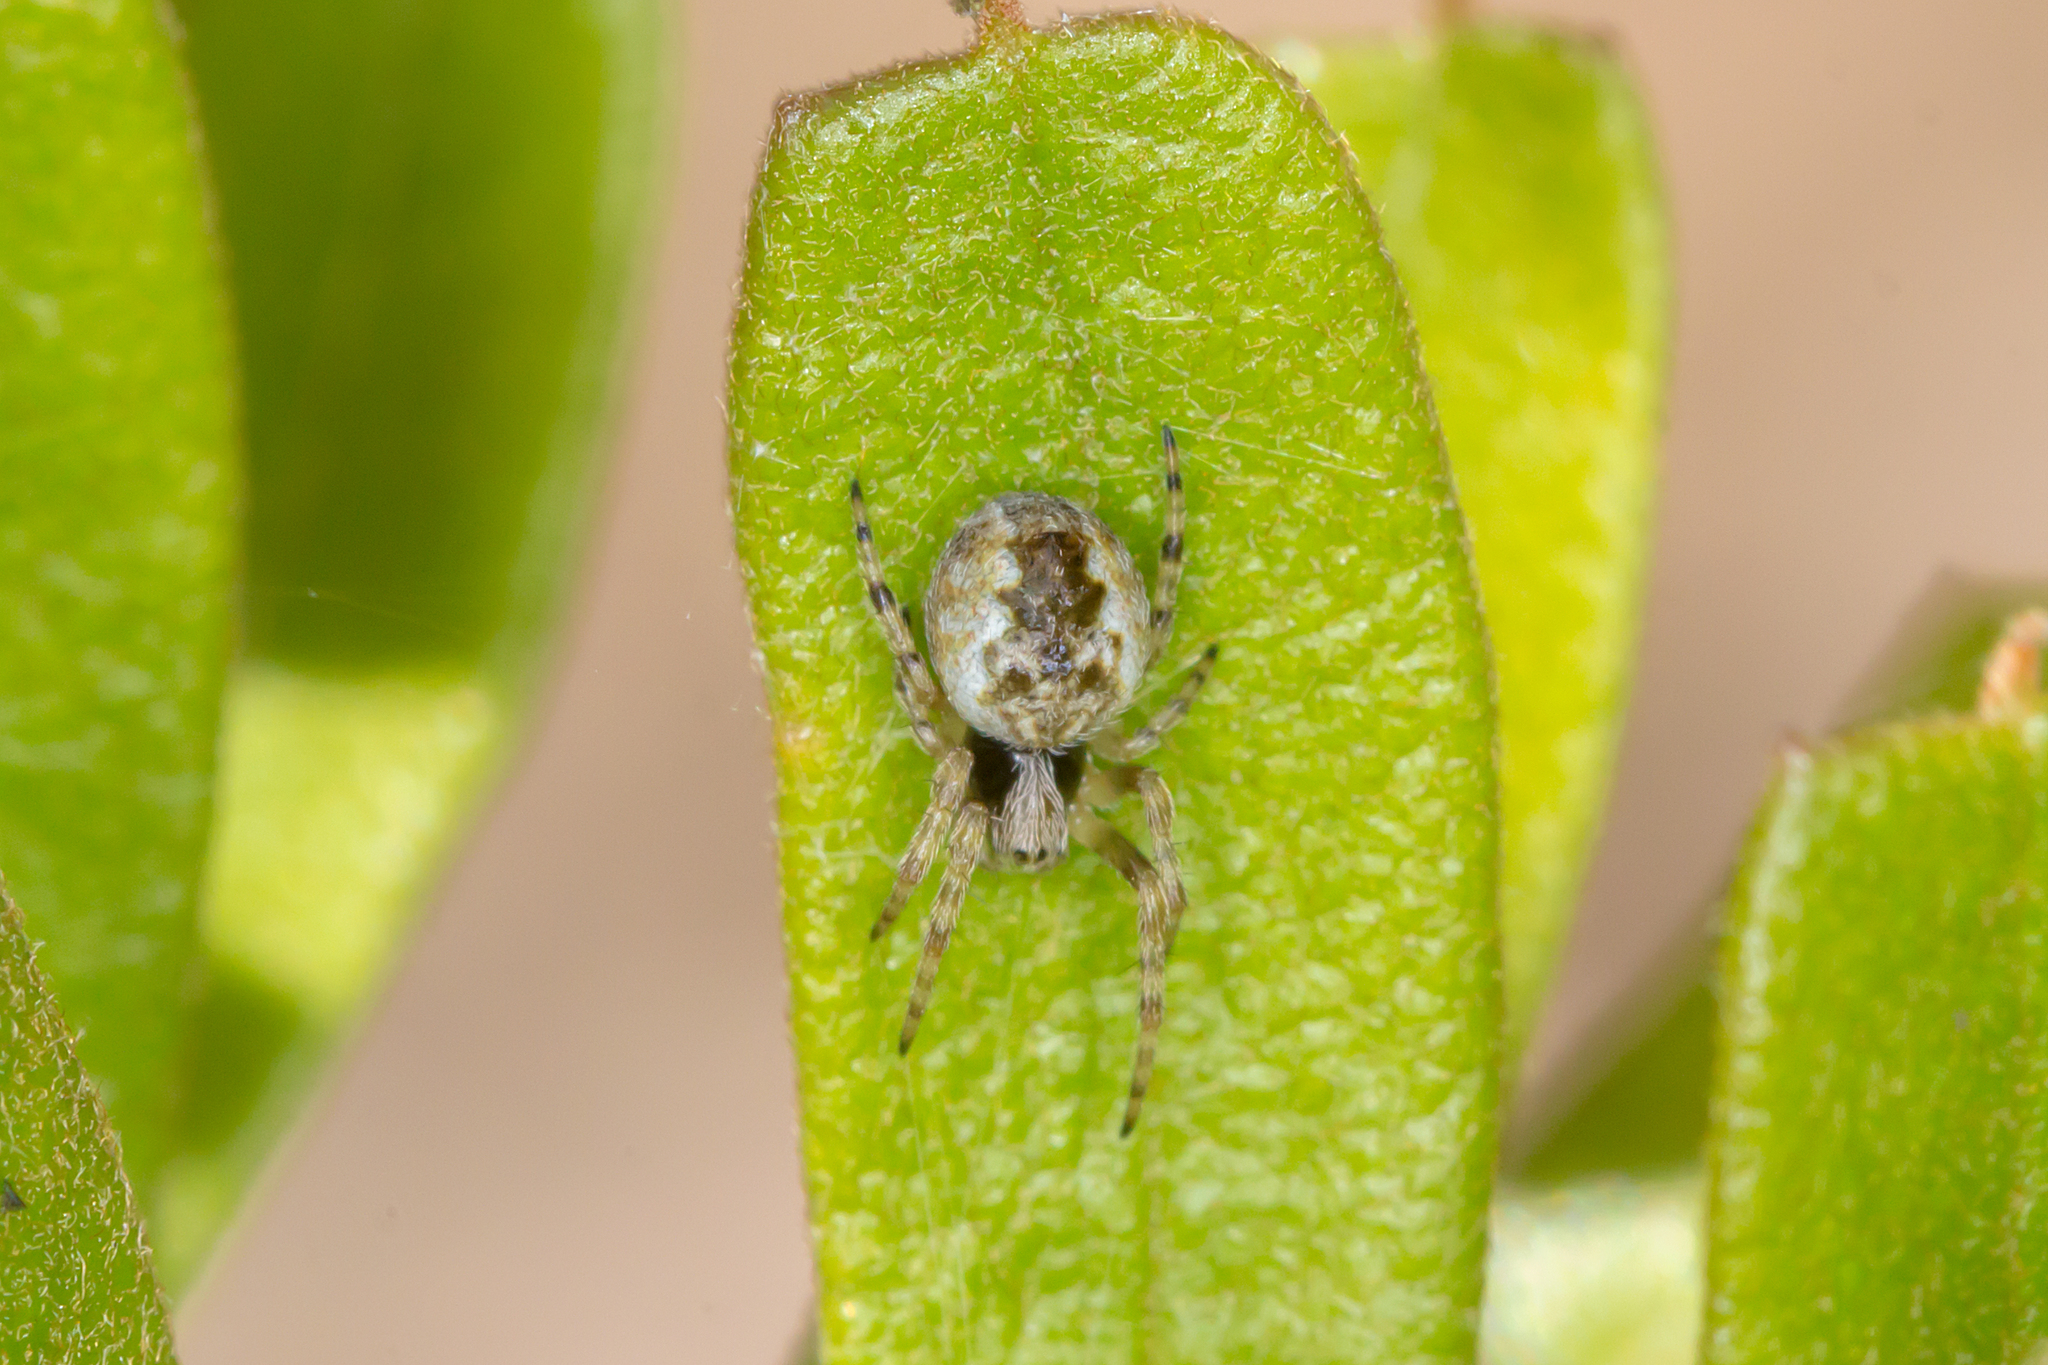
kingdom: Animalia
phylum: Arthropoda
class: Arachnida
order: Araneae
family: Araneidae
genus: Salsa
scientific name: Salsa fuliginata
